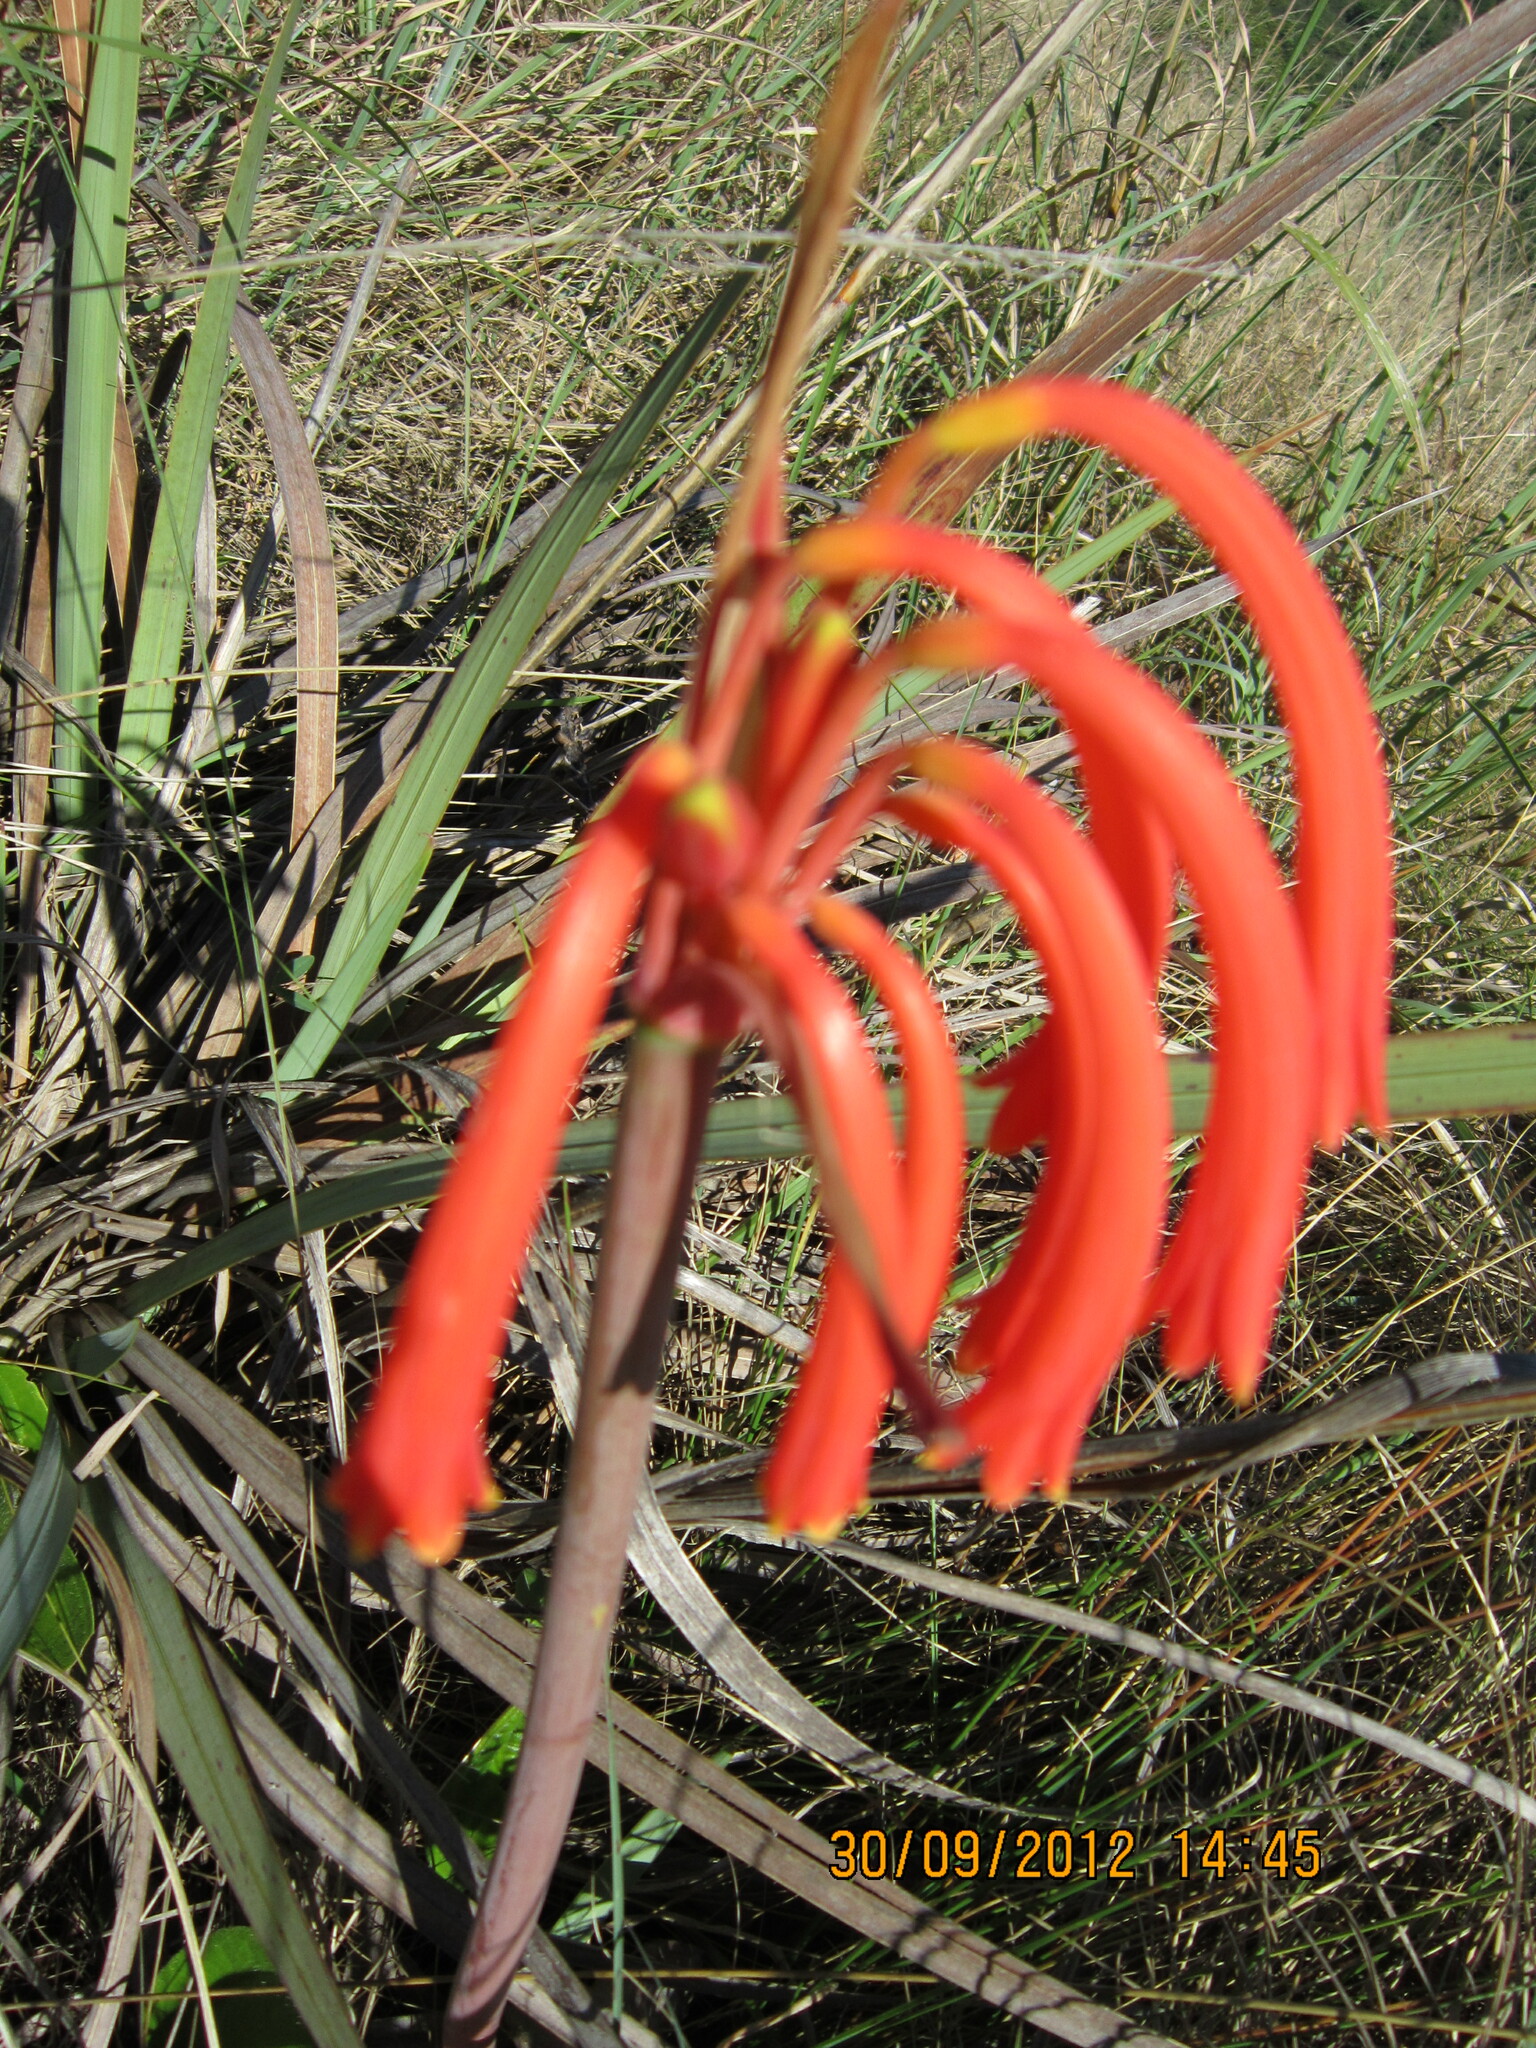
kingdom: Plantae
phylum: Tracheophyta
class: Liliopsida
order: Asparagales
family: Amaryllidaceae
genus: Cyrtanthus
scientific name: Cyrtanthus tuckii
